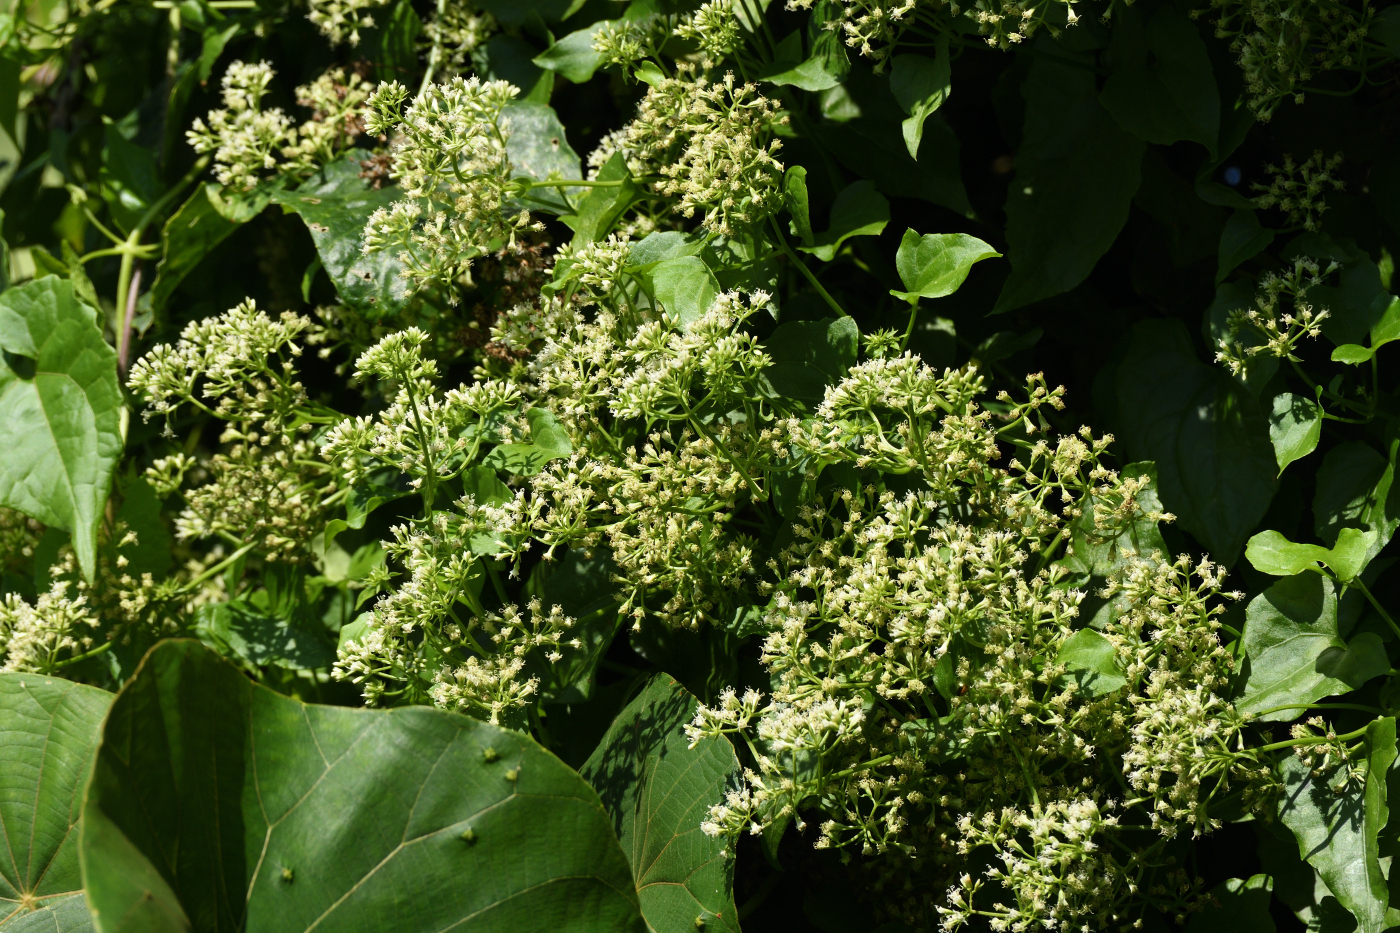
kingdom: Plantae
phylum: Tracheophyta
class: Magnoliopsida
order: Asterales
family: Asteraceae
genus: Mikania
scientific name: Mikania micrantha
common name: Mile-a-minute
